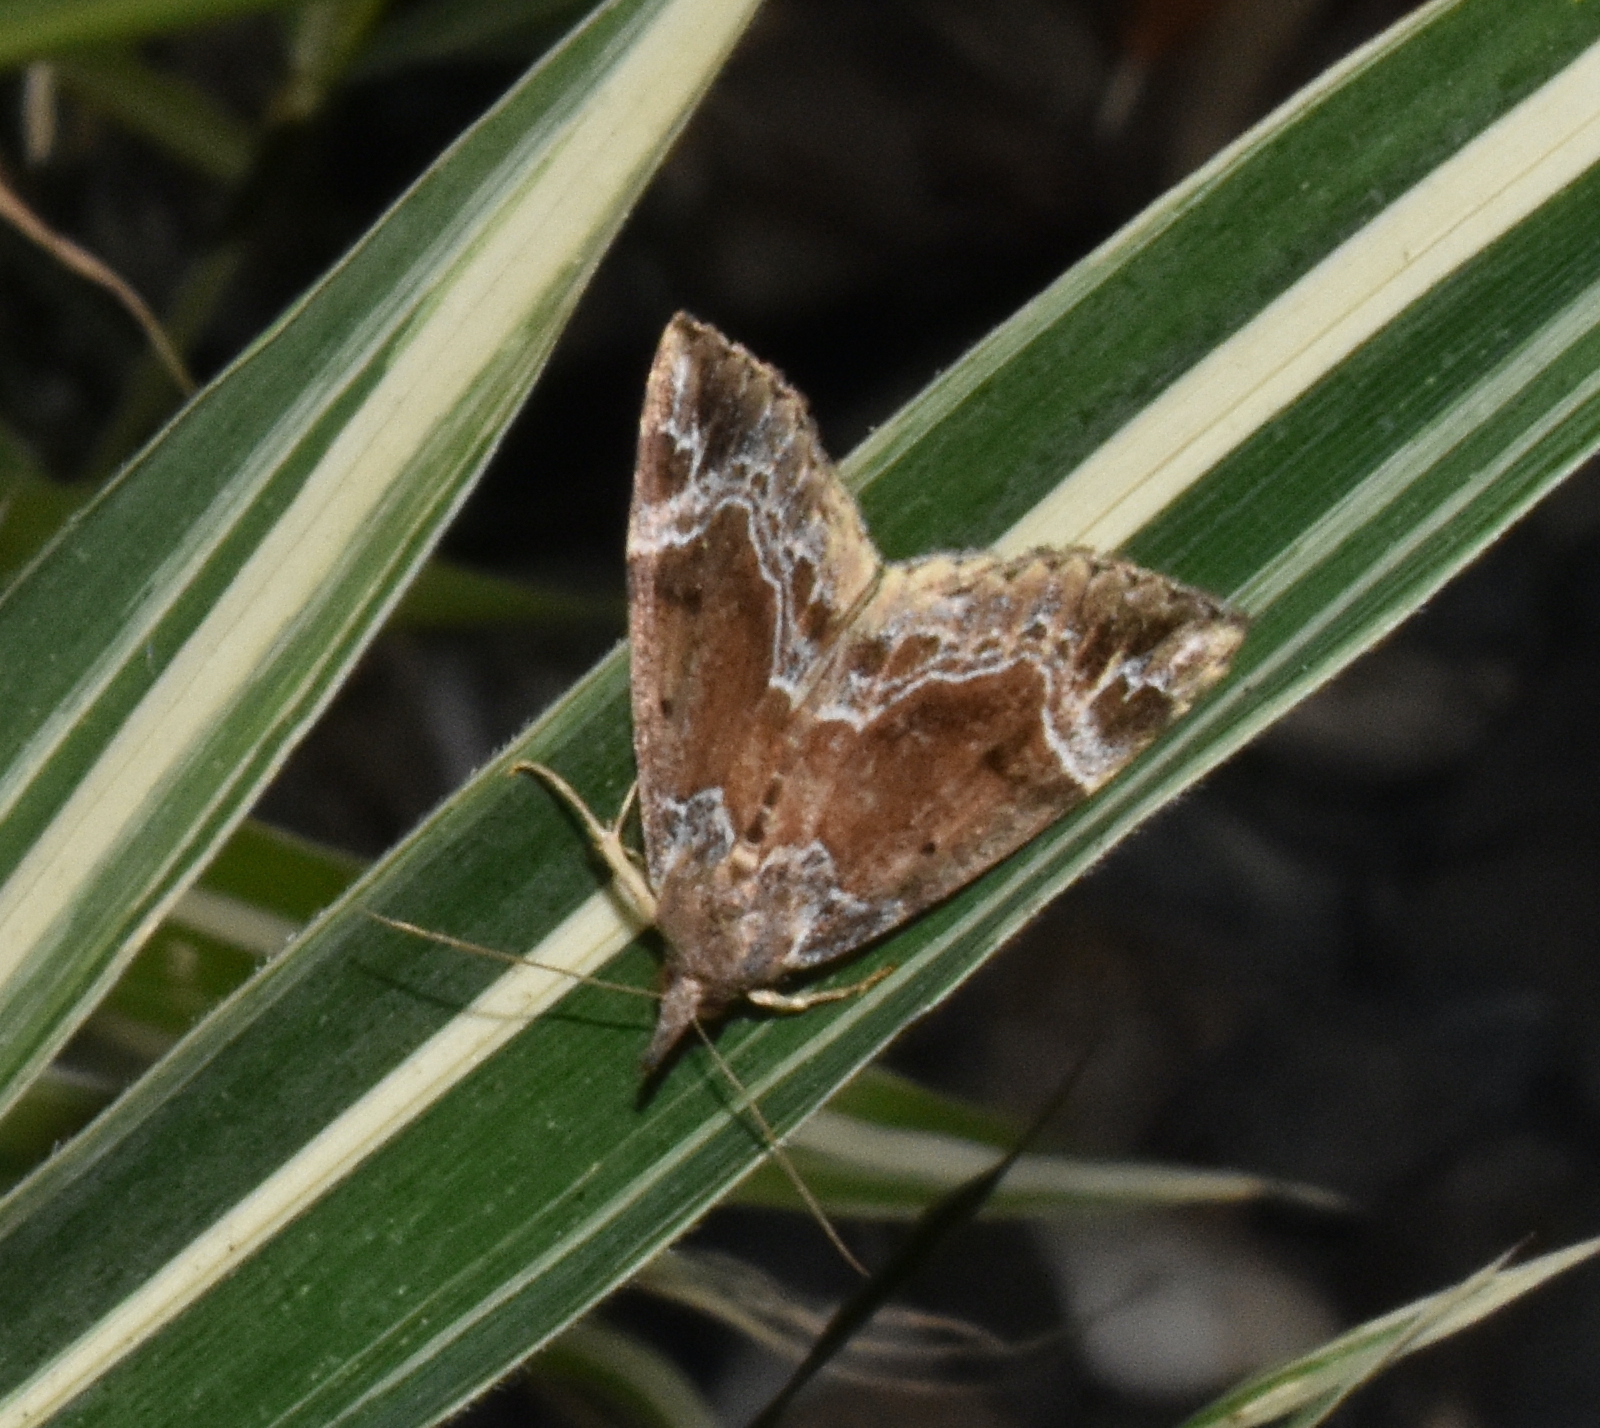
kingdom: Animalia
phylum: Arthropoda
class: Insecta
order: Lepidoptera
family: Erebidae
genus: Hypena
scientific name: Hypena abalienalis
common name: White-lined snout
